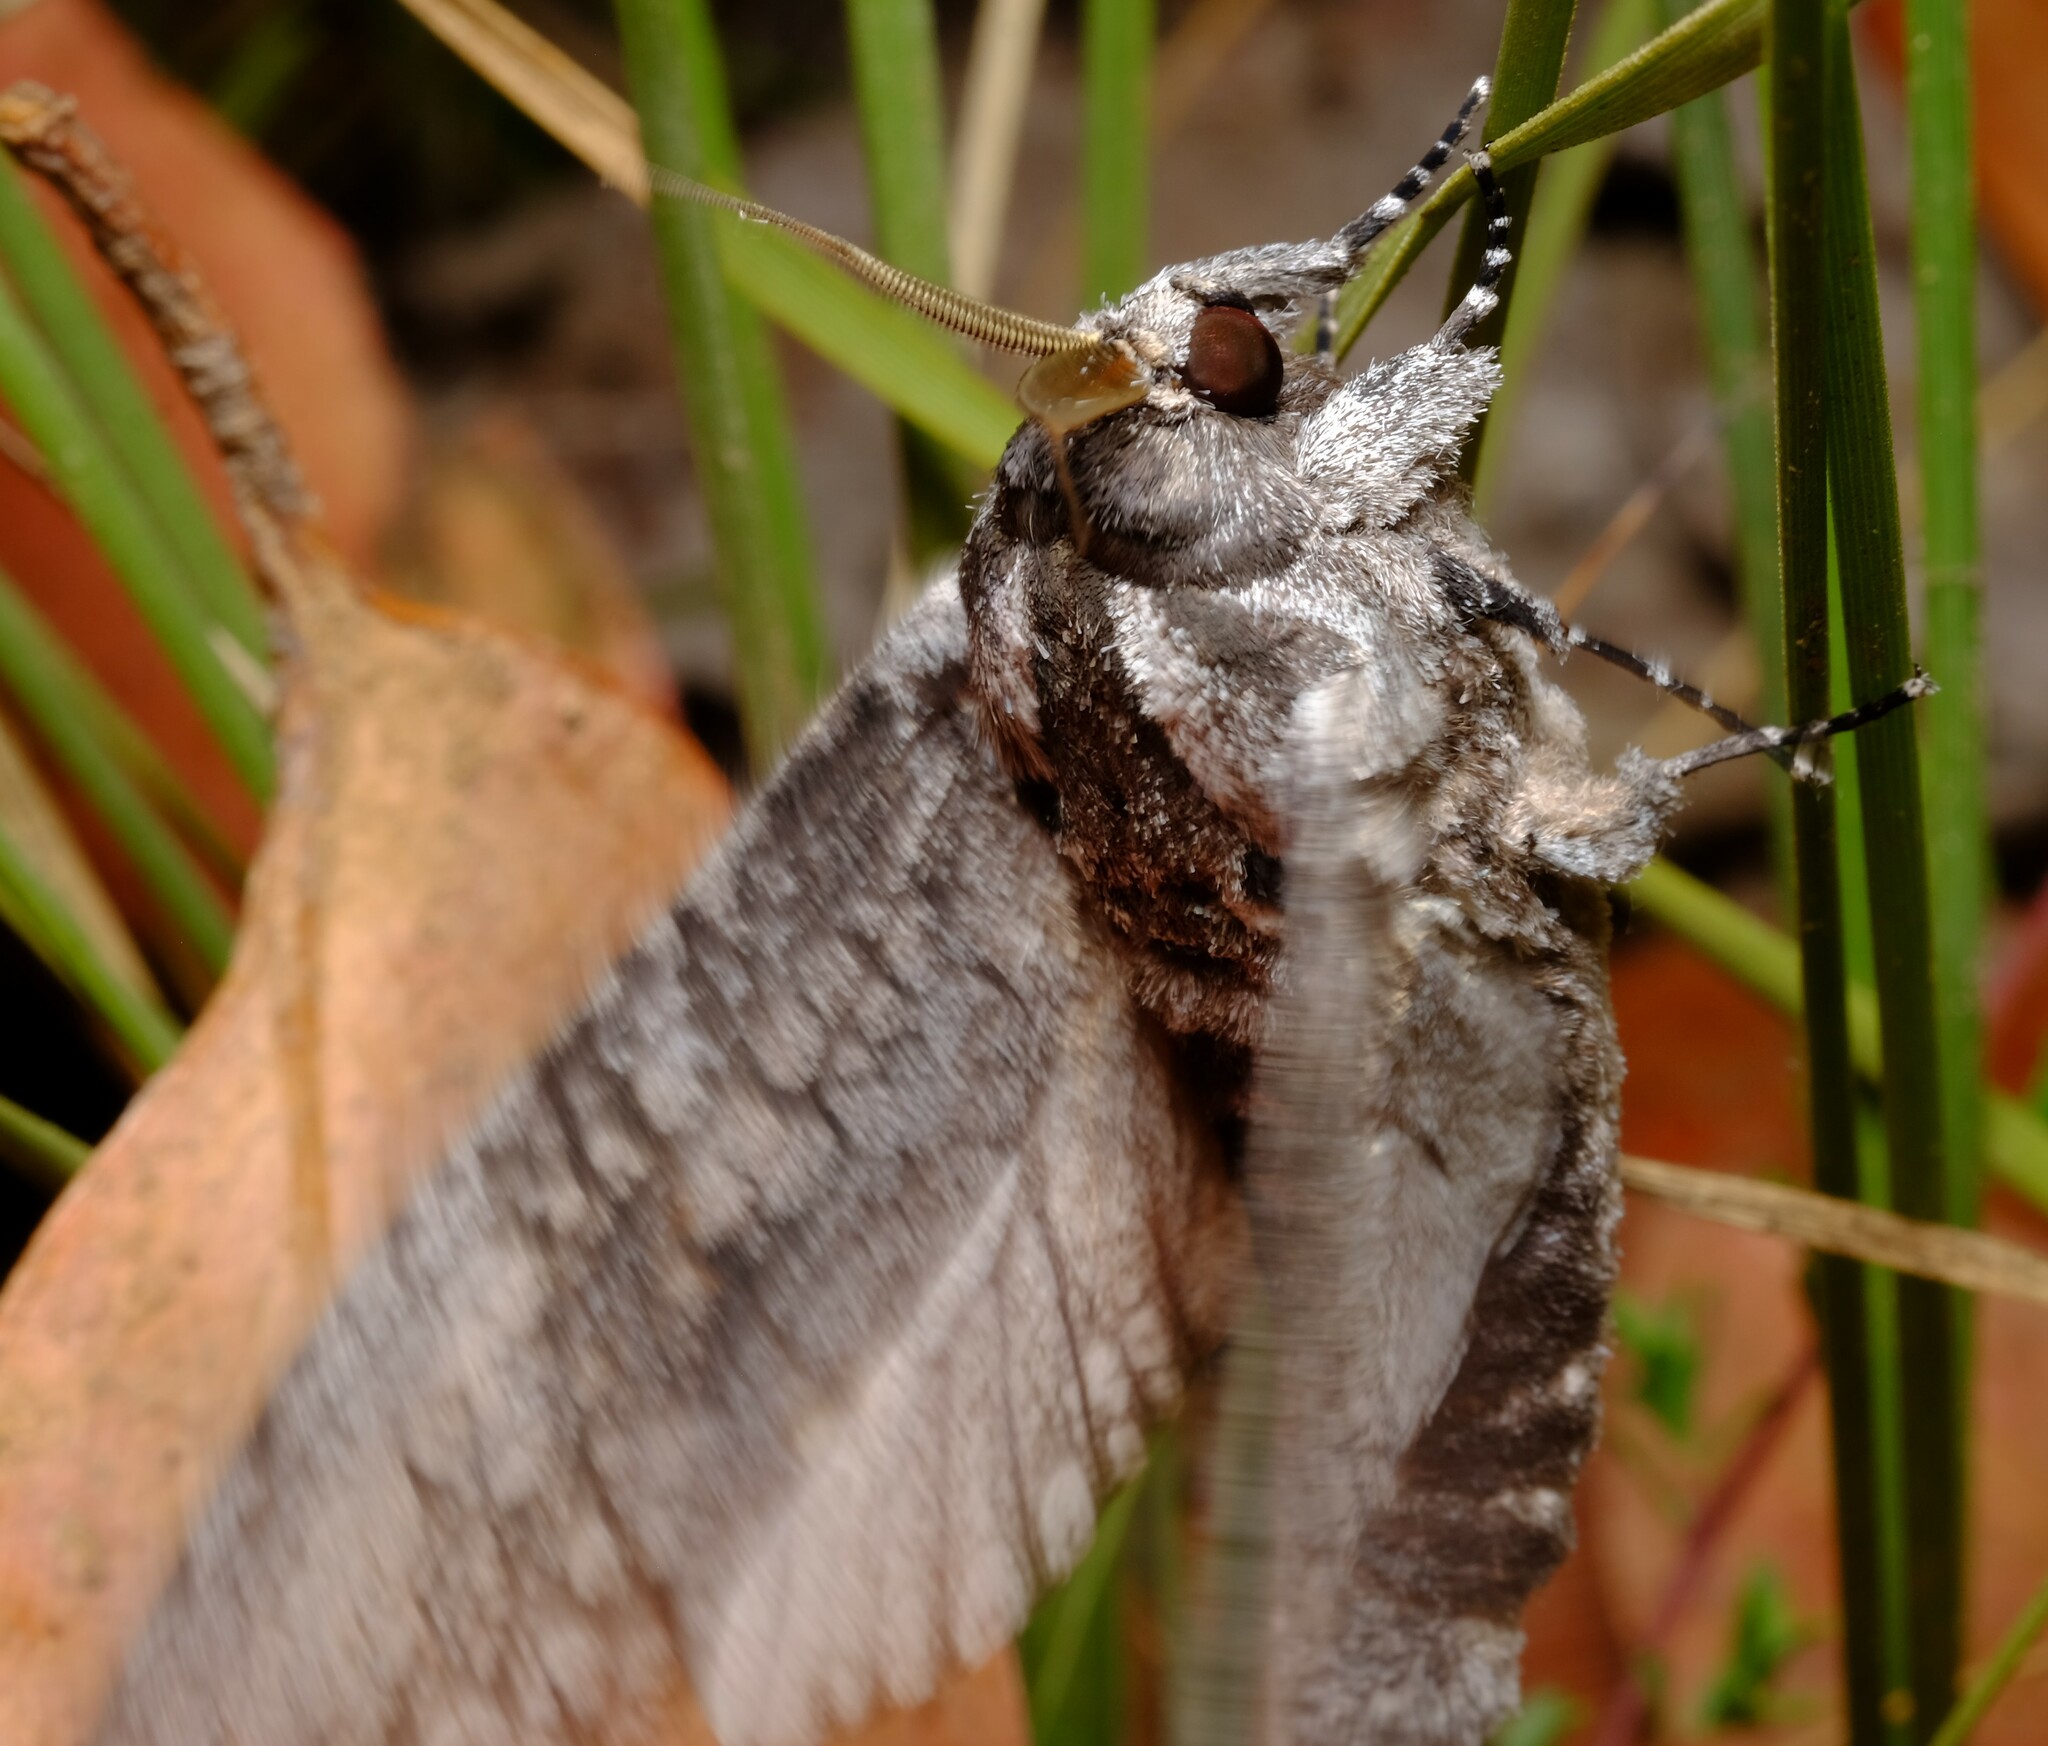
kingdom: Animalia
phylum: Arthropoda
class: Insecta
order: Lepidoptera
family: Cossidae
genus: Endoxyla
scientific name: Endoxyla lichenea
